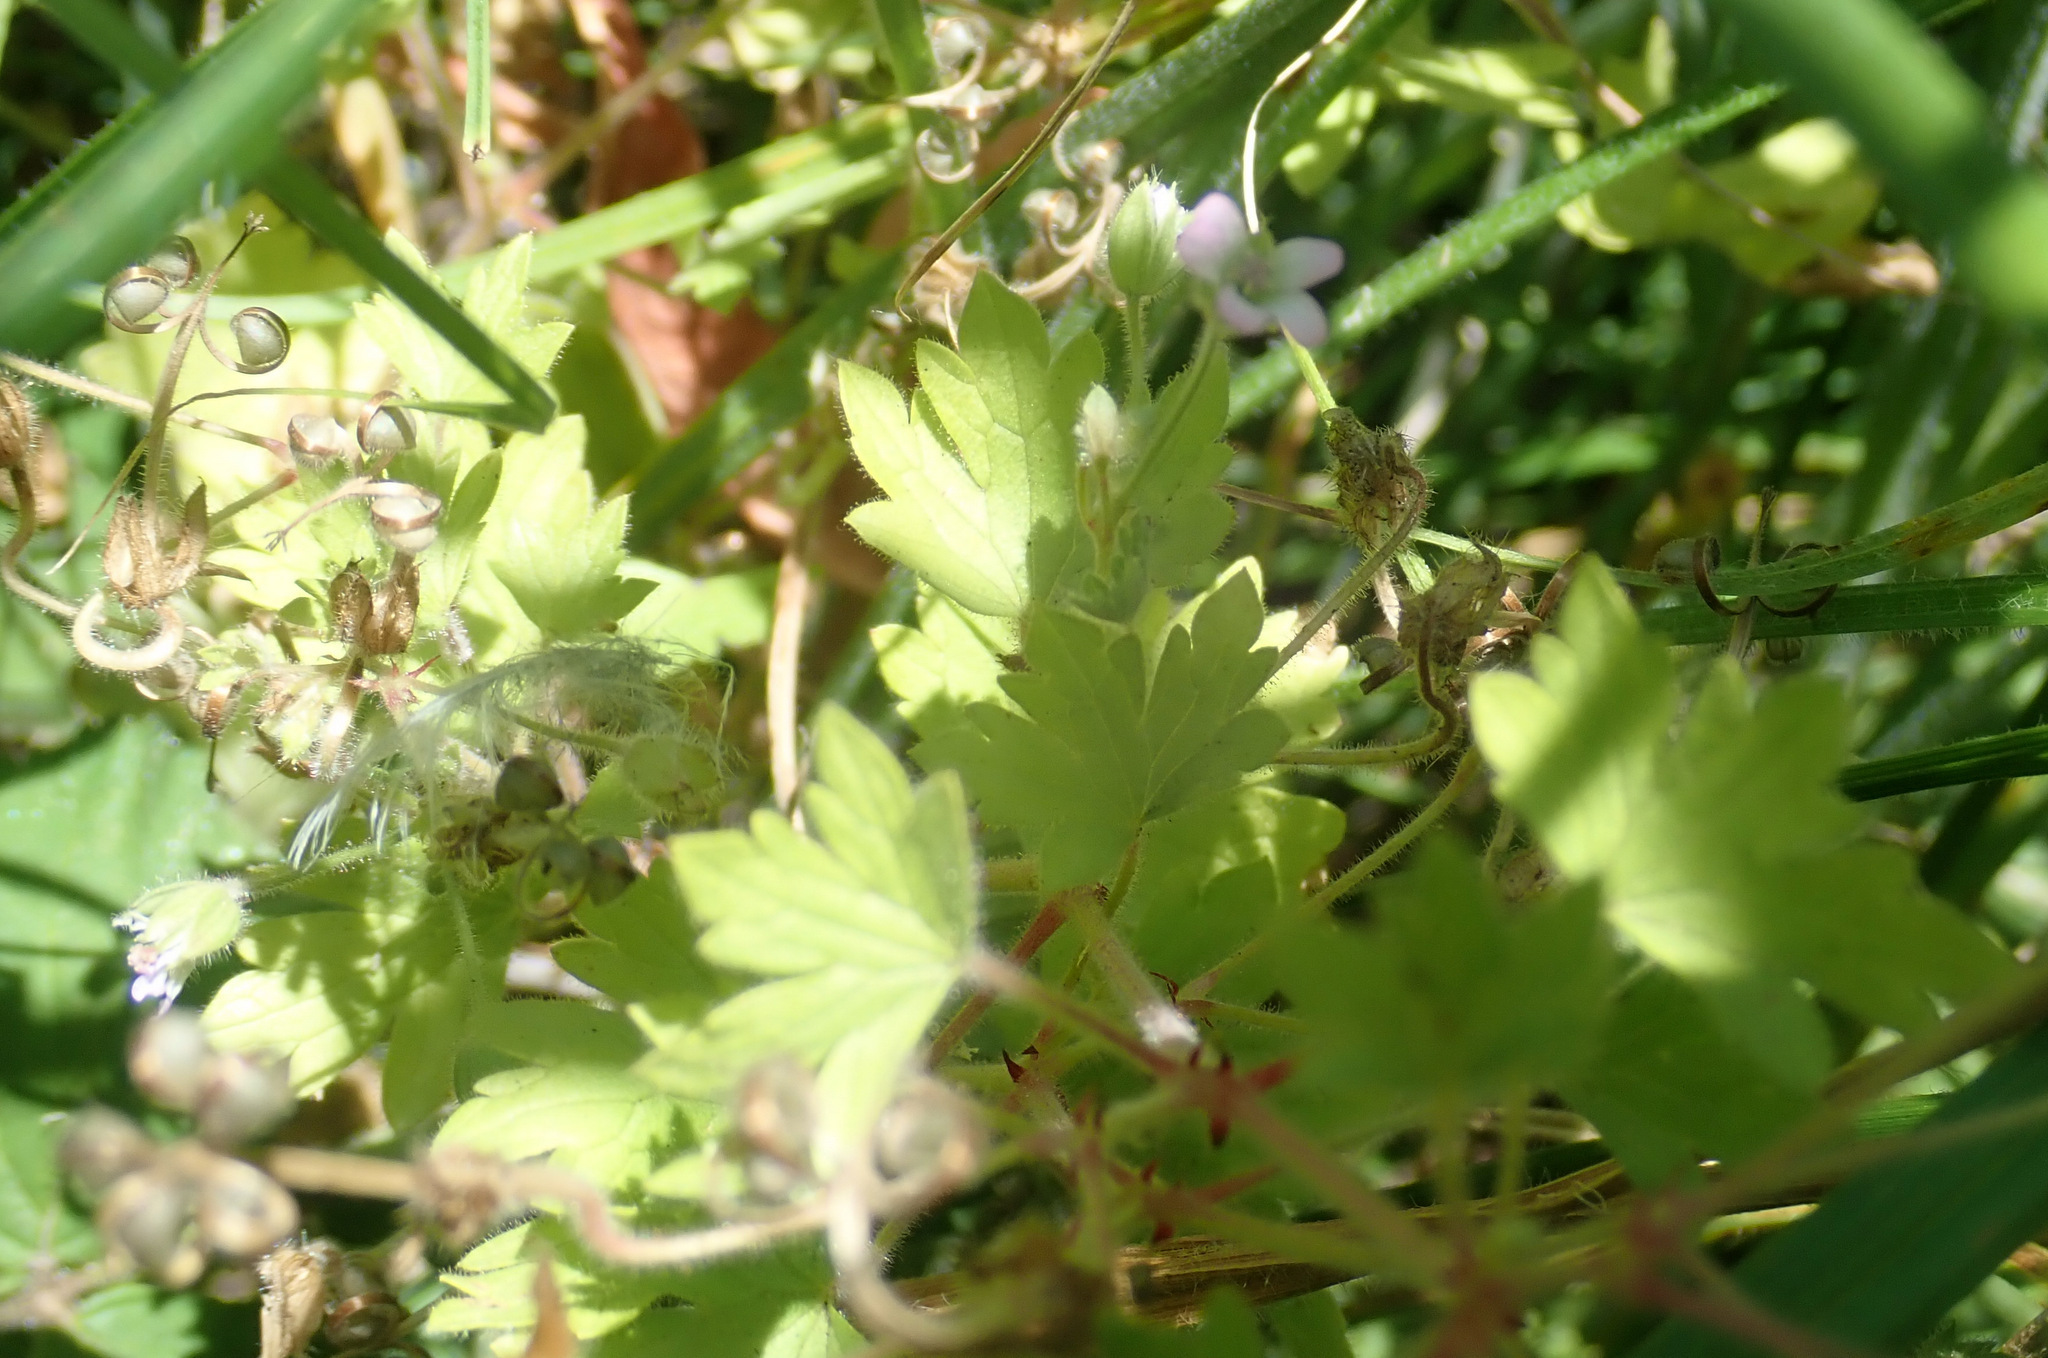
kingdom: Plantae
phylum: Tracheophyta
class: Magnoliopsida
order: Geraniales
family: Geraniaceae
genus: Geranium
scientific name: Geranium rotundifolium
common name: Round-leaved crane's-bill
